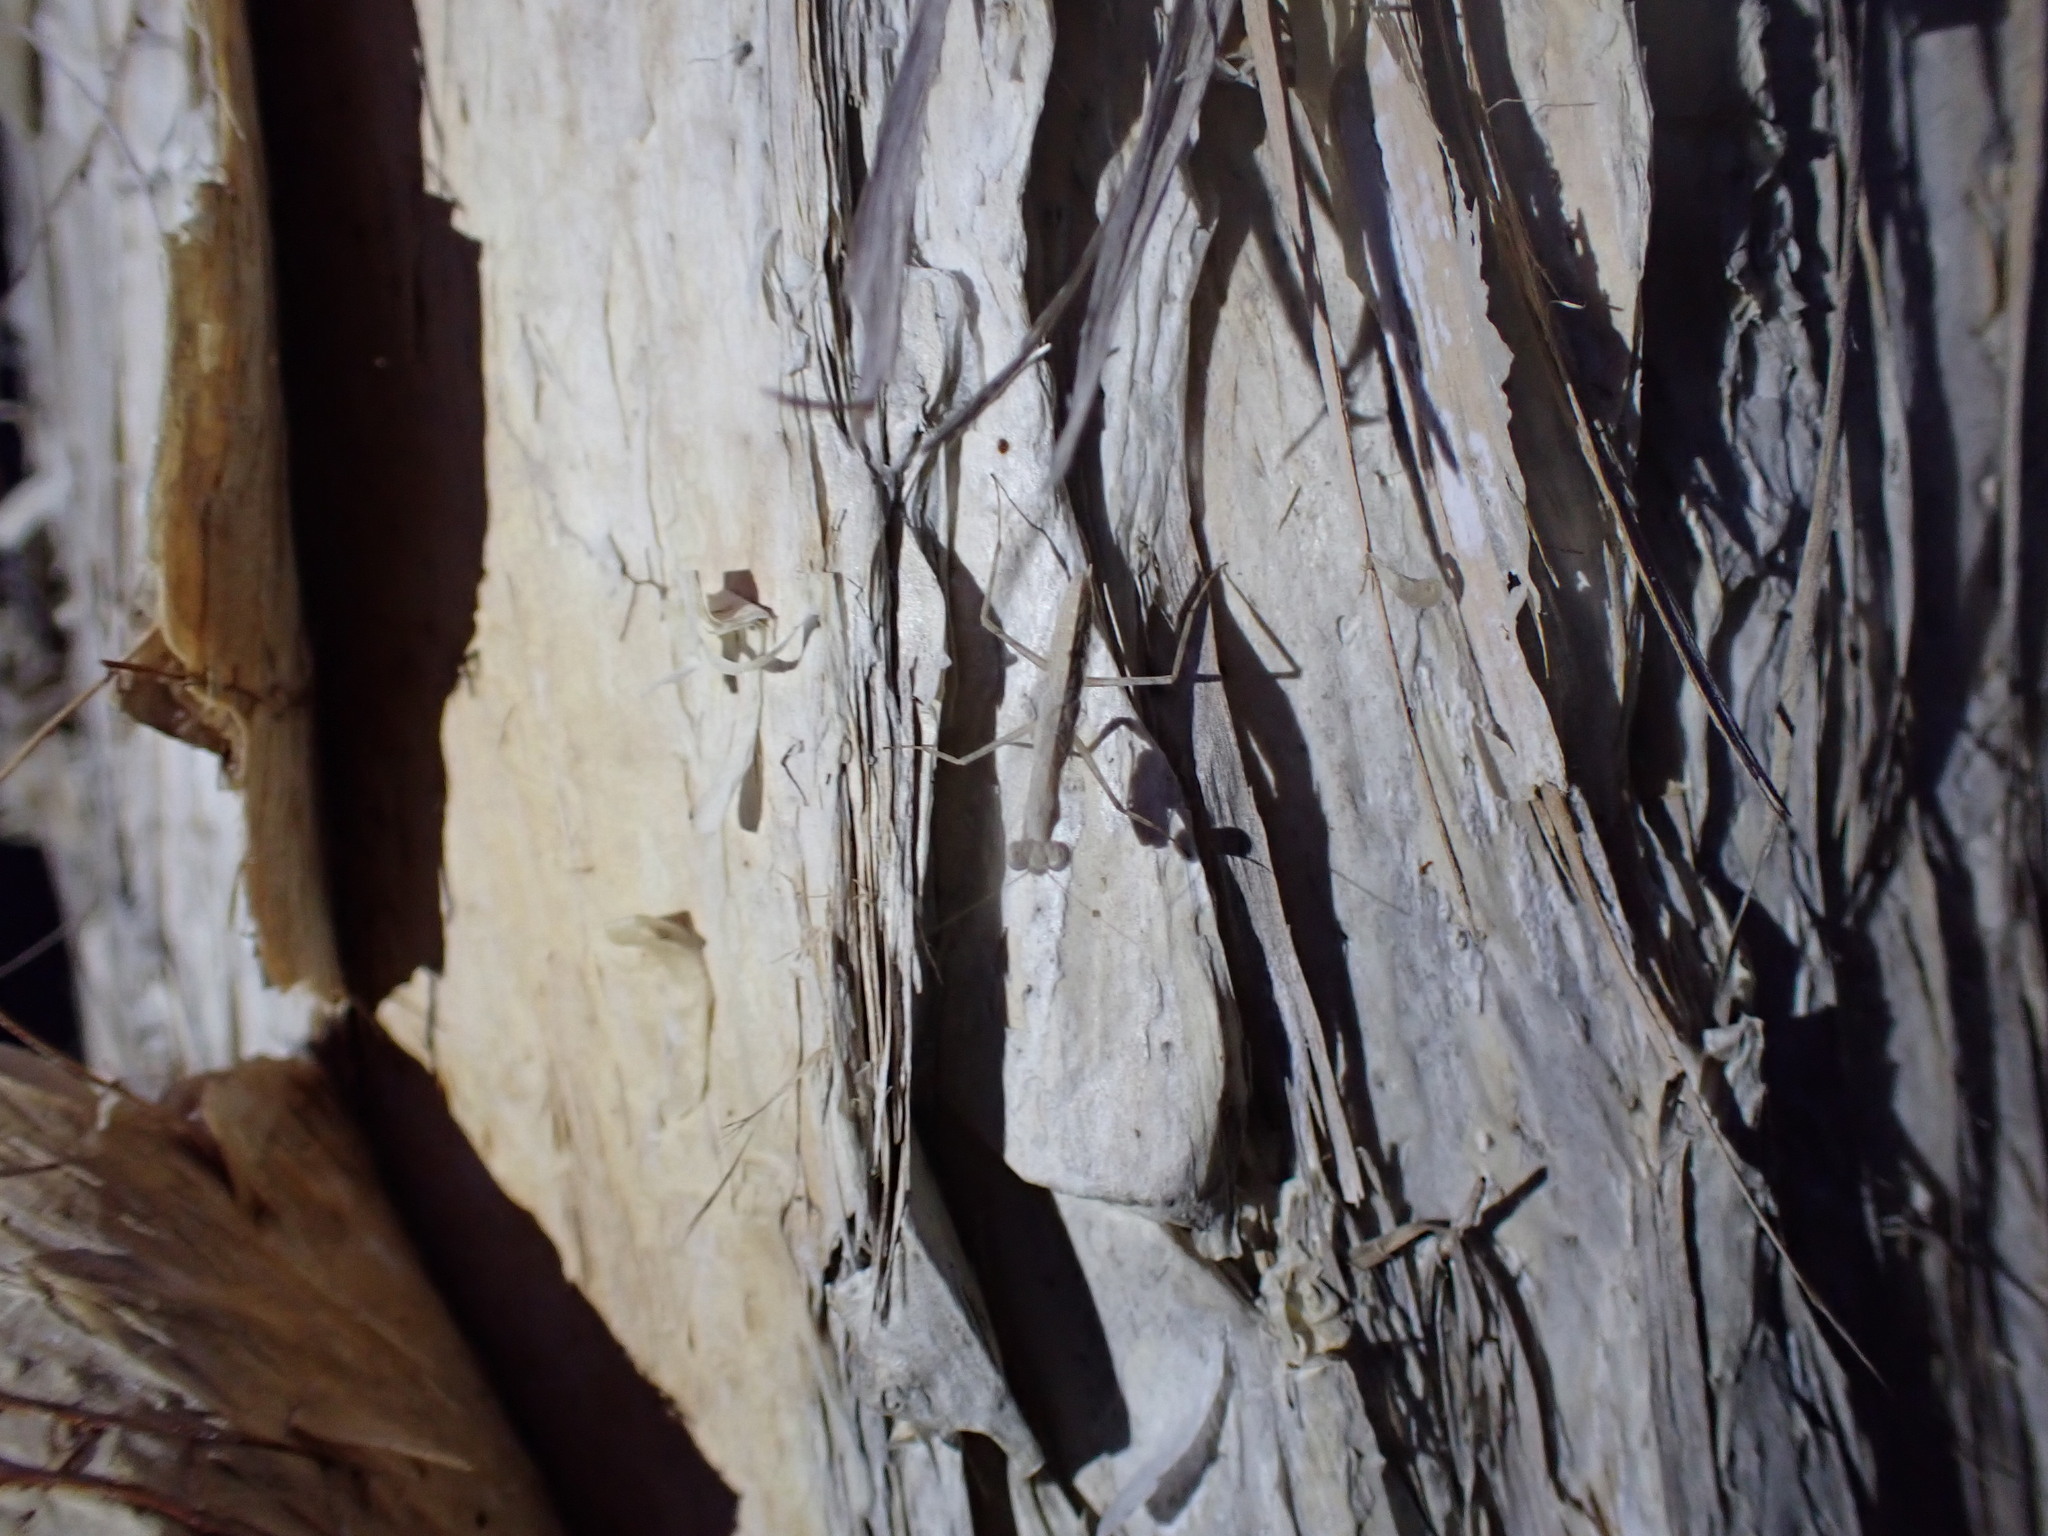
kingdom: Animalia
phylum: Arthropoda
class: Insecta
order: Mantodea
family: Nanomantidae
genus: Ima
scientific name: Ima fusca
